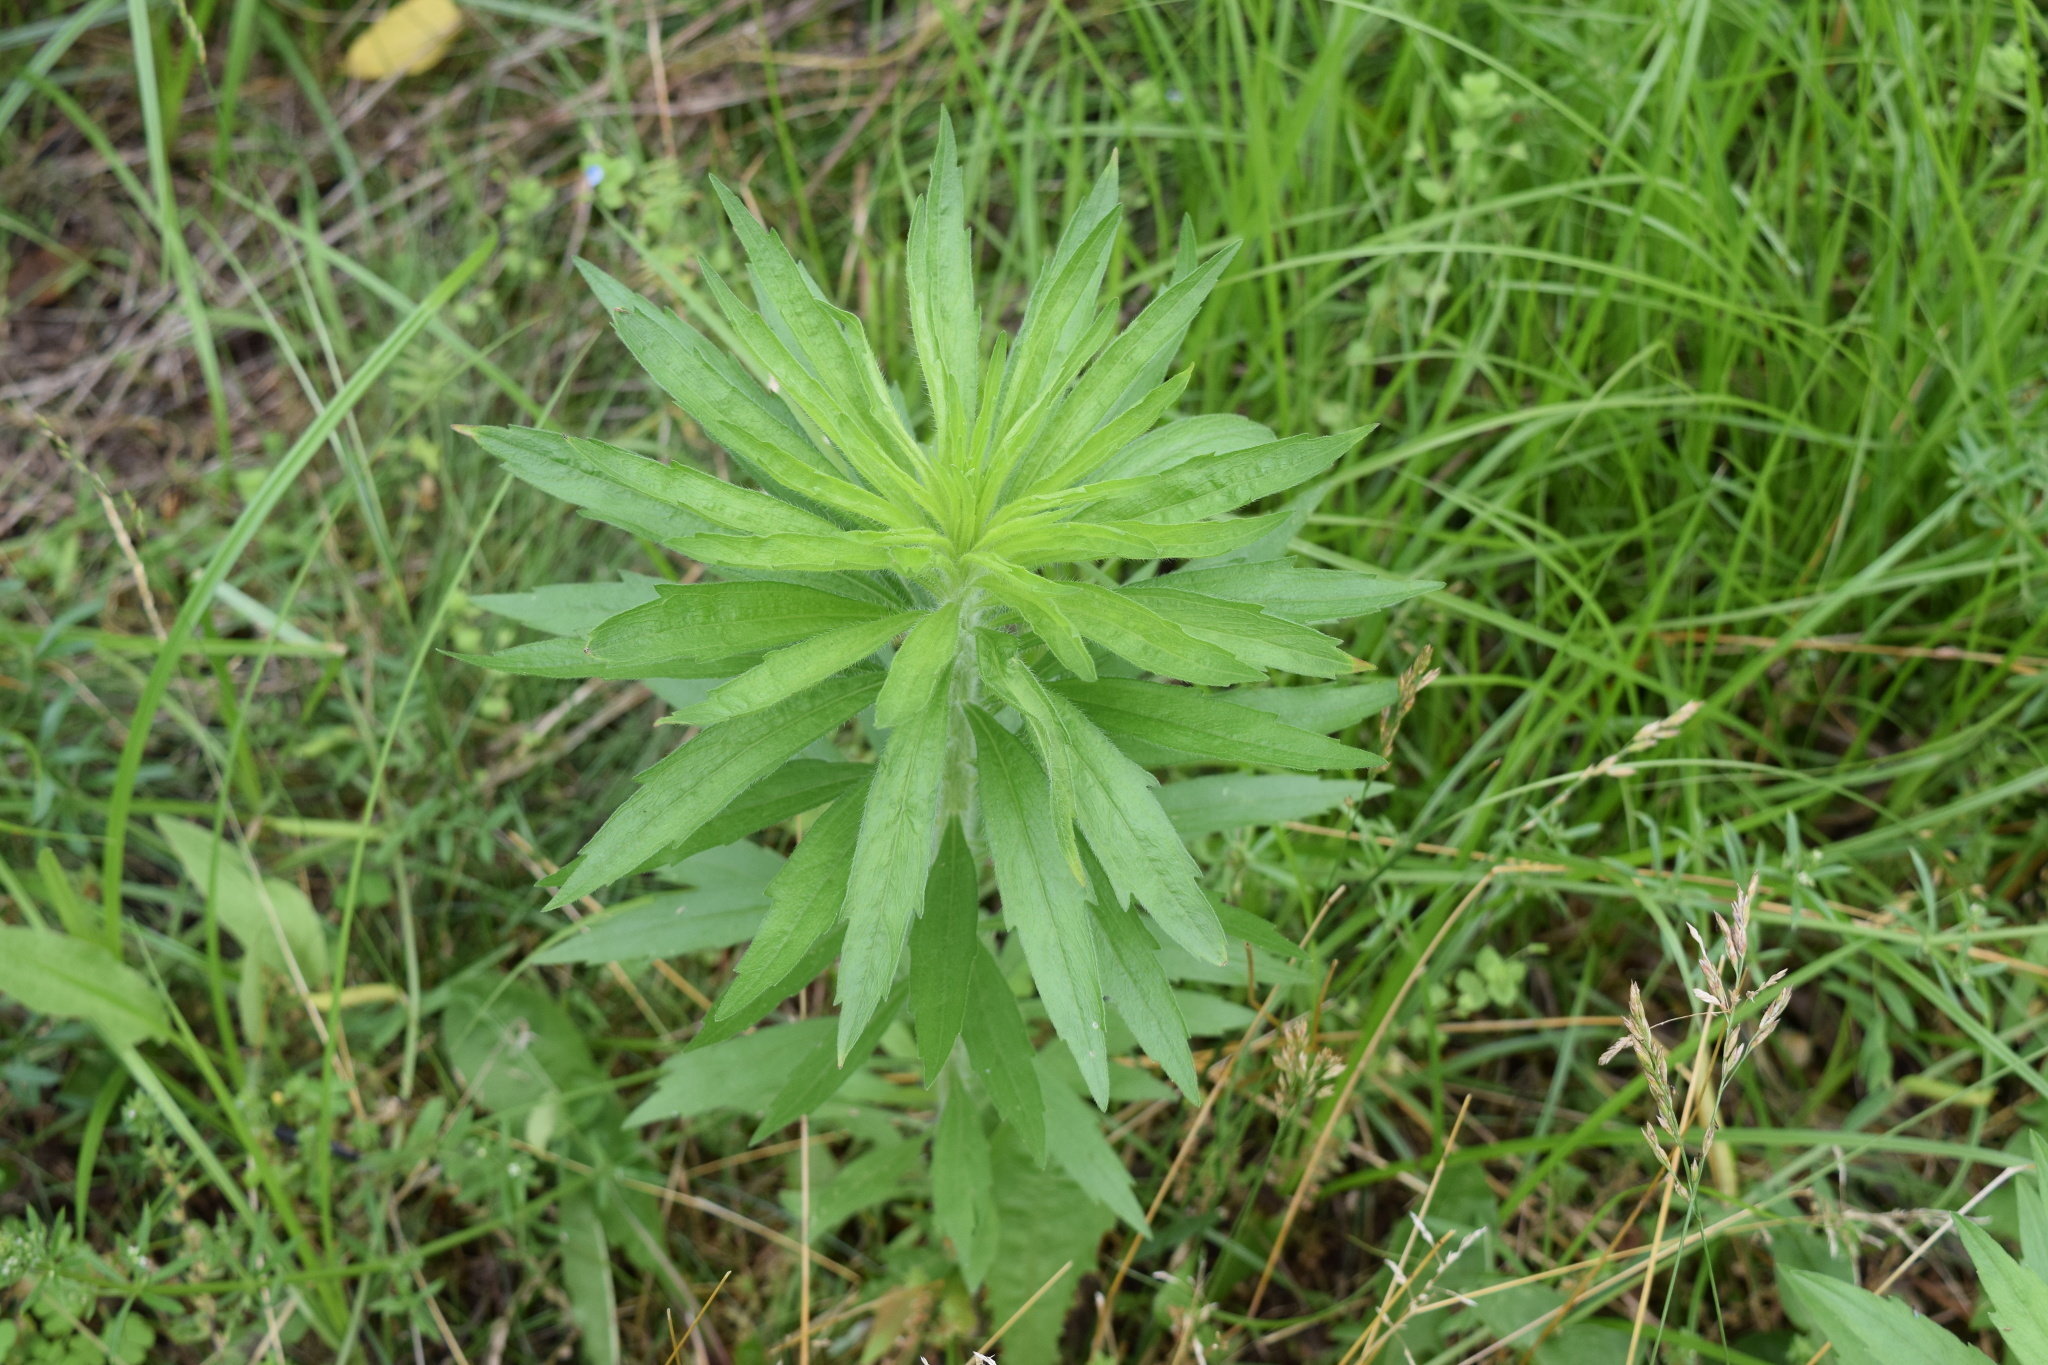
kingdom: Plantae
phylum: Tracheophyta
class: Magnoliopsida
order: Asterales
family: Asteraceae
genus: Erigeron
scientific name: Erigeron canadensis
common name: Canadian fleabane
